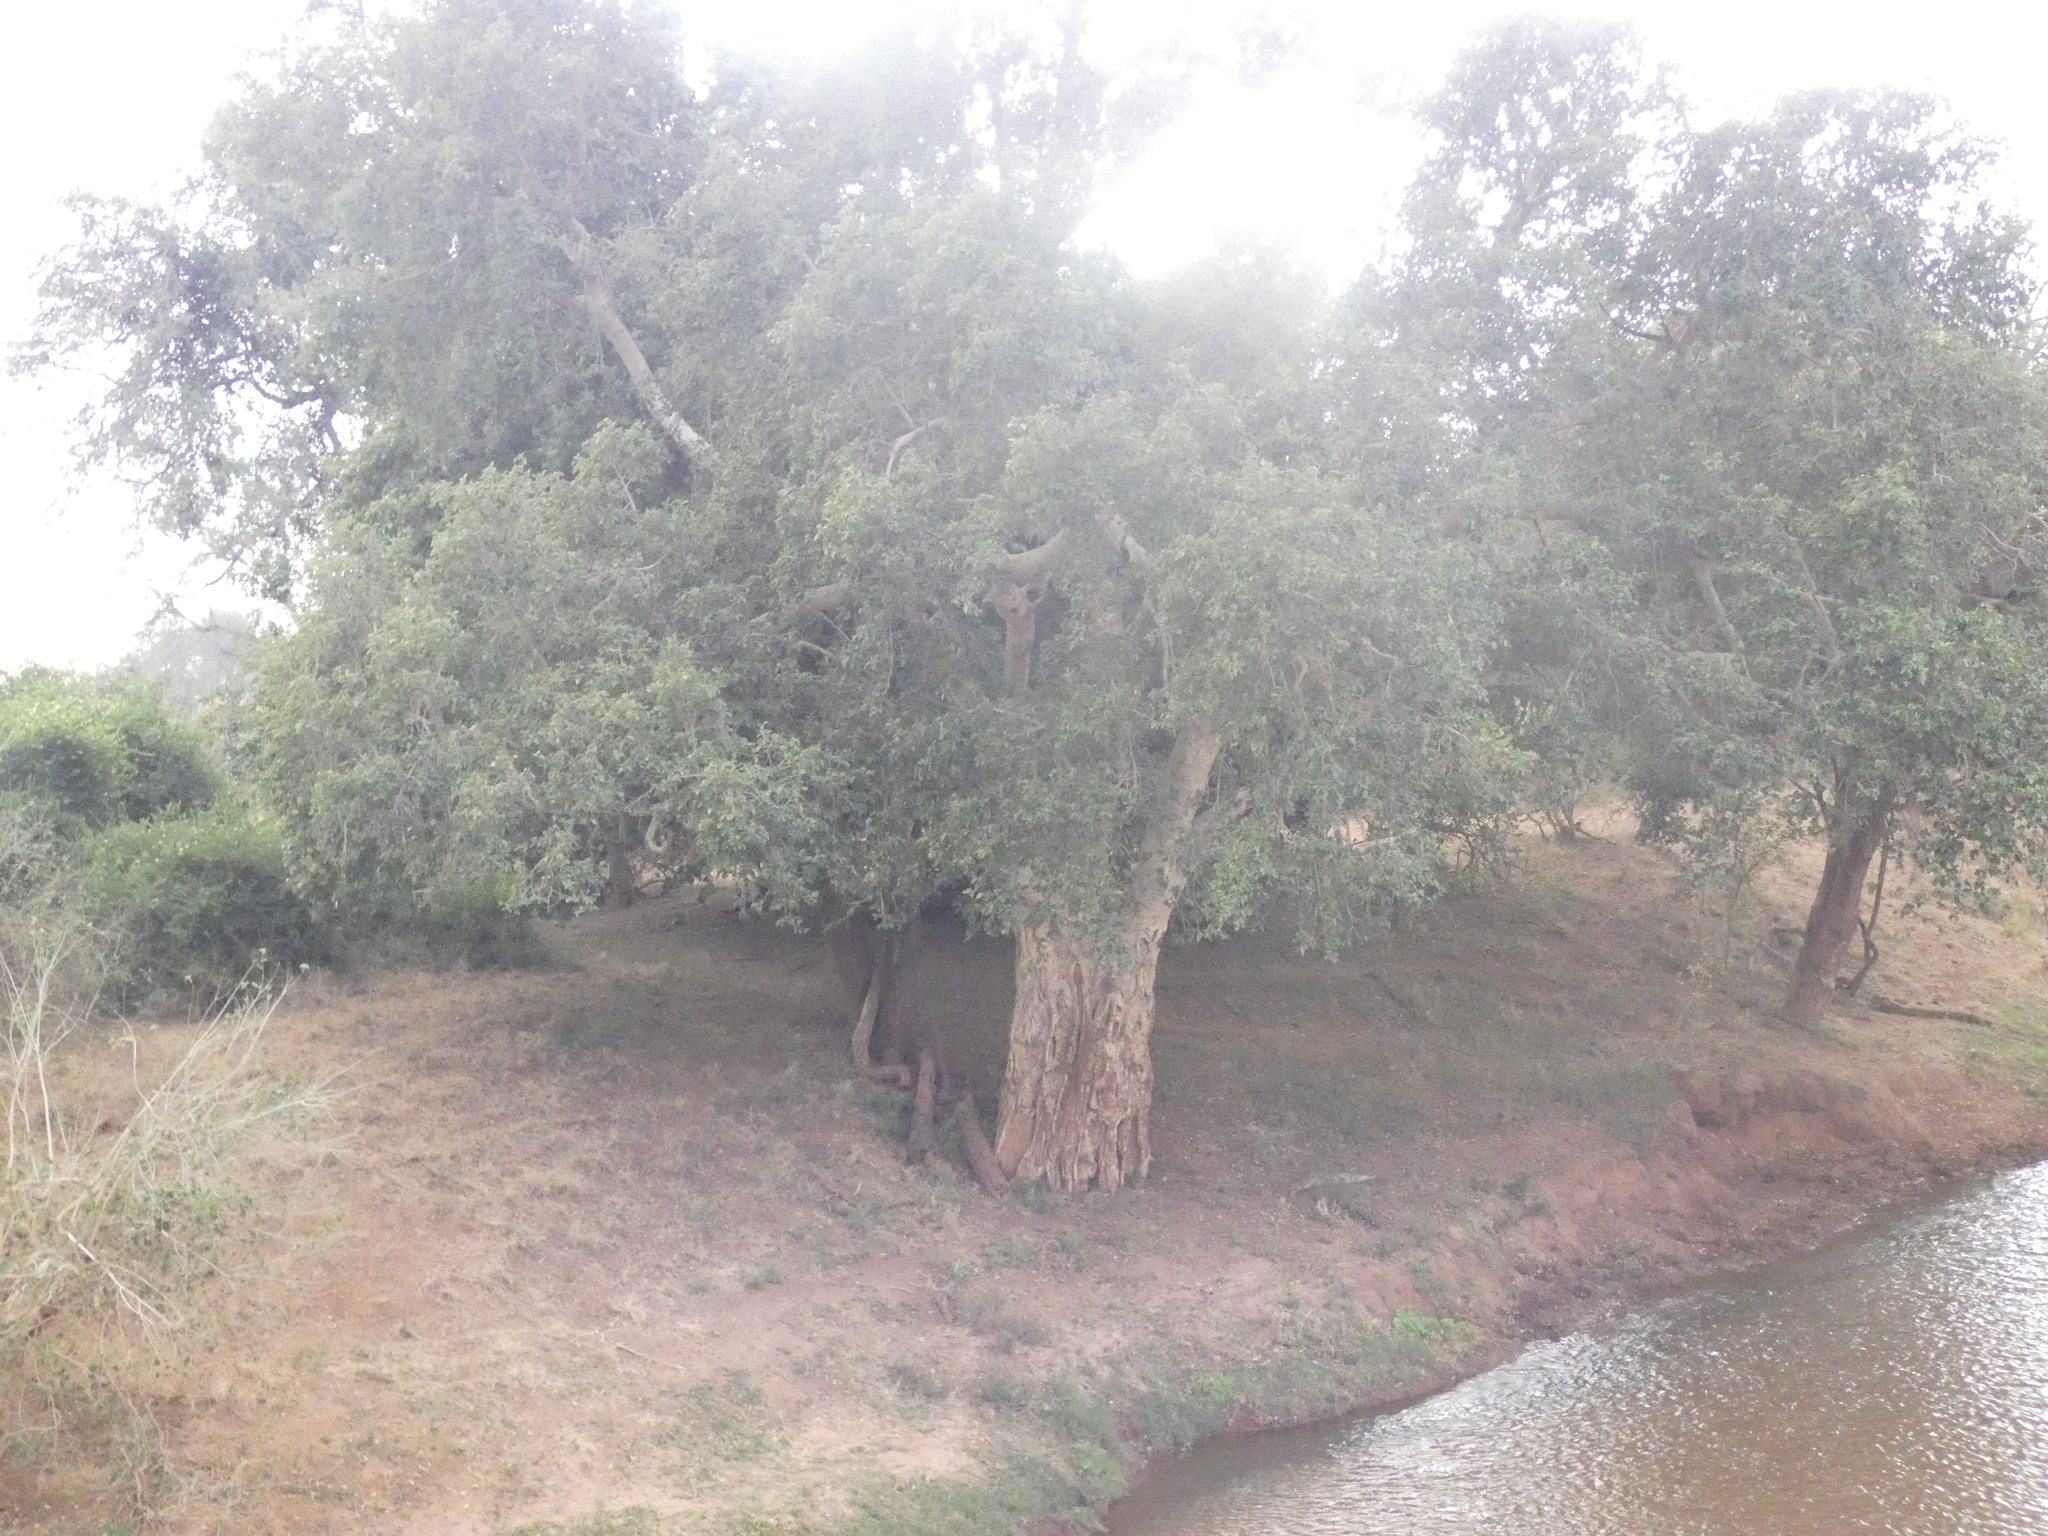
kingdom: Plantae
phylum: Tracheophyta
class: Magnoliopsida
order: Rosales
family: Moraceae
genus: Ficus
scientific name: Ficus sycomorus
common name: Sycomore
